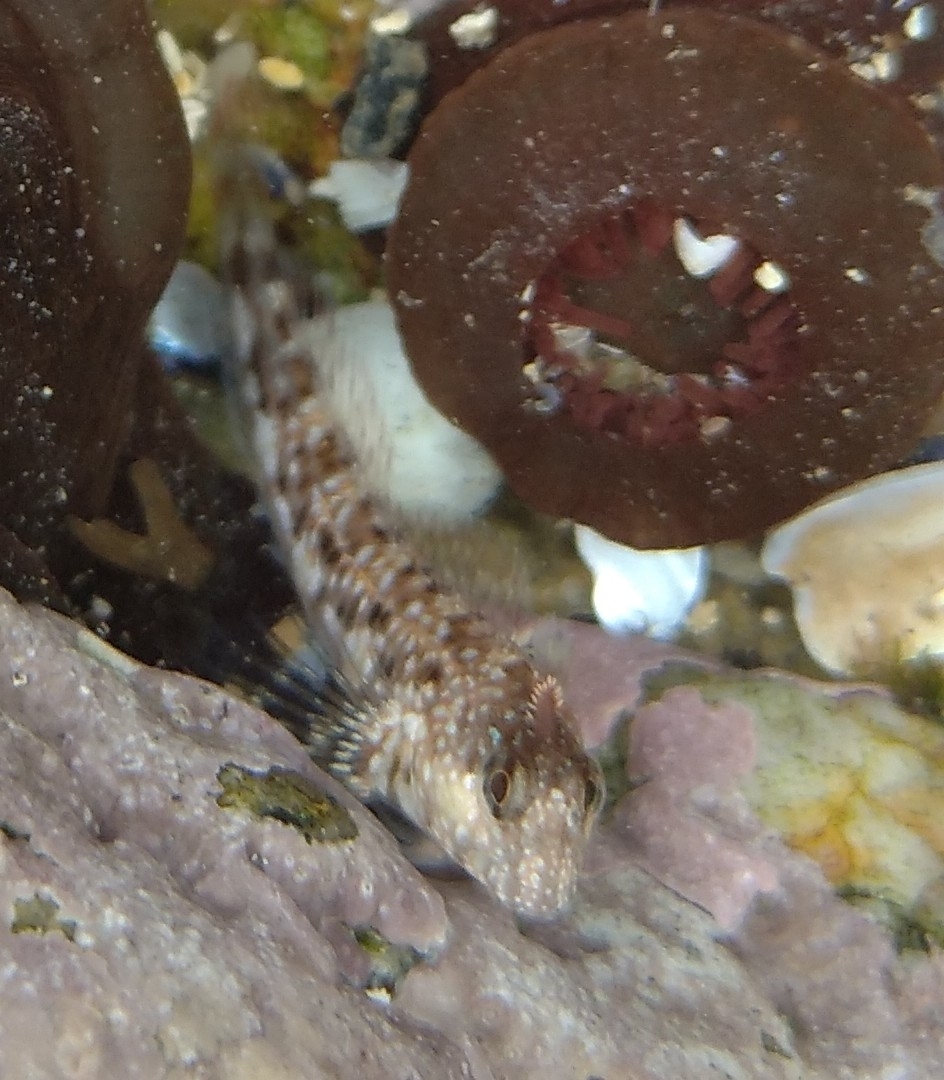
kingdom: Animalia
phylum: Chordata
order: Perciformes
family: Blenniidae
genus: Coryphoblennius
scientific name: Coryphoblennius galerita
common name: Montagu's blenny
